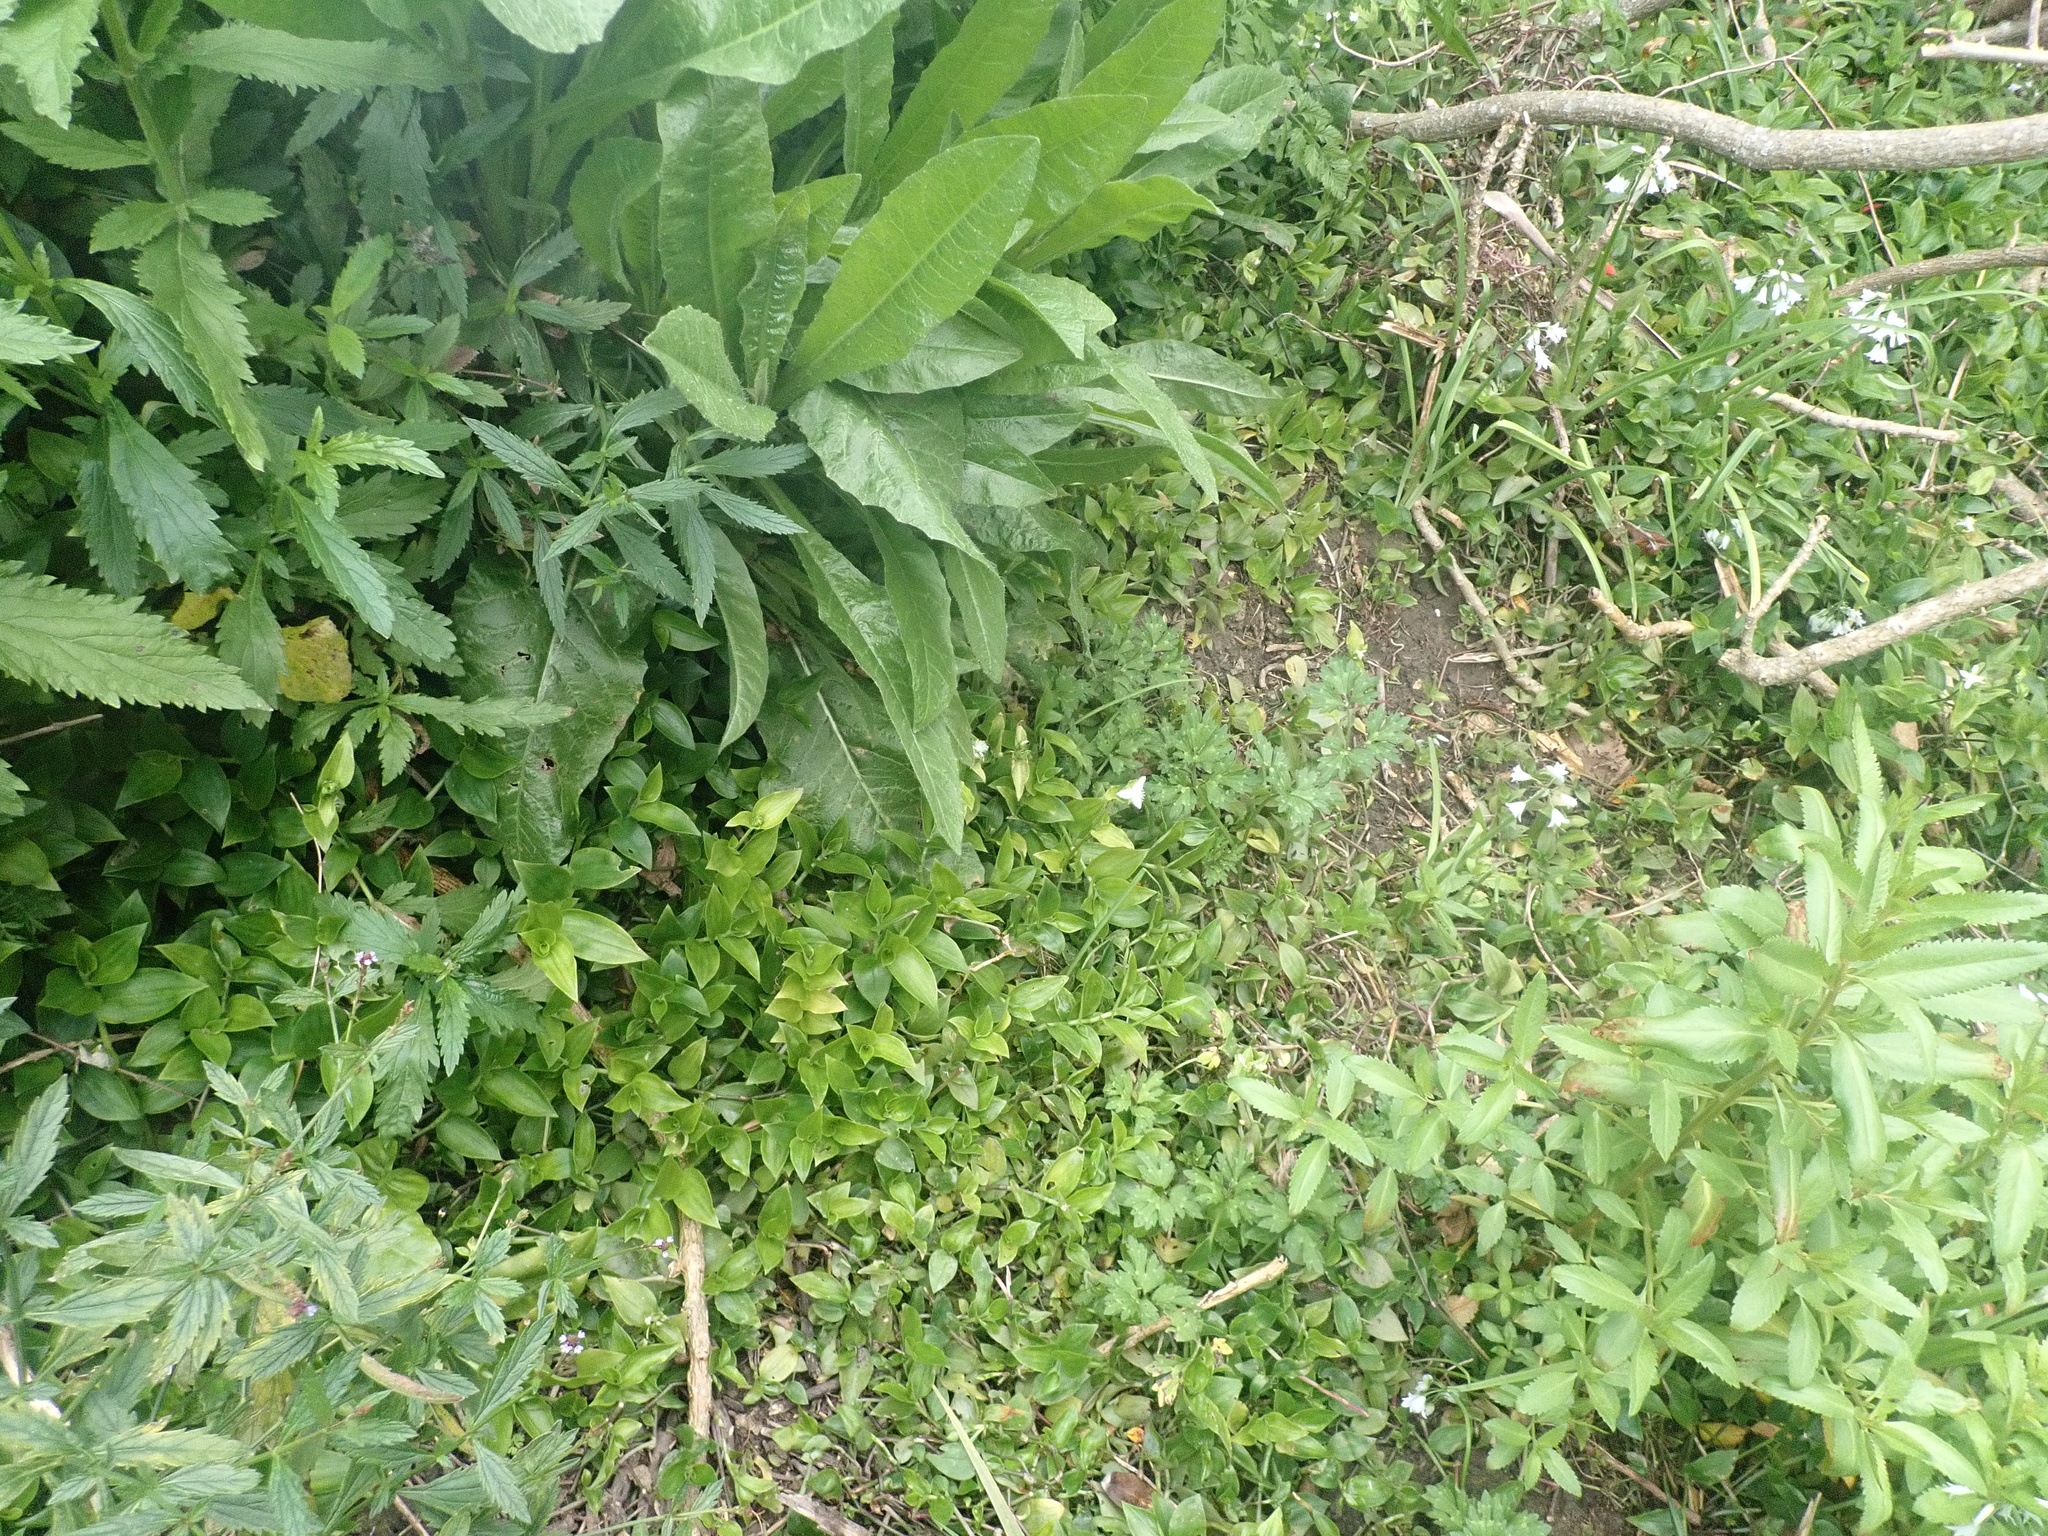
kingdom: Plantae
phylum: Tracheophyta
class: Magnoliopsida
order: Lamiales
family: Verbenaceae
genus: Verbena
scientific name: Verbena litoralis
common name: Seashore vervain
